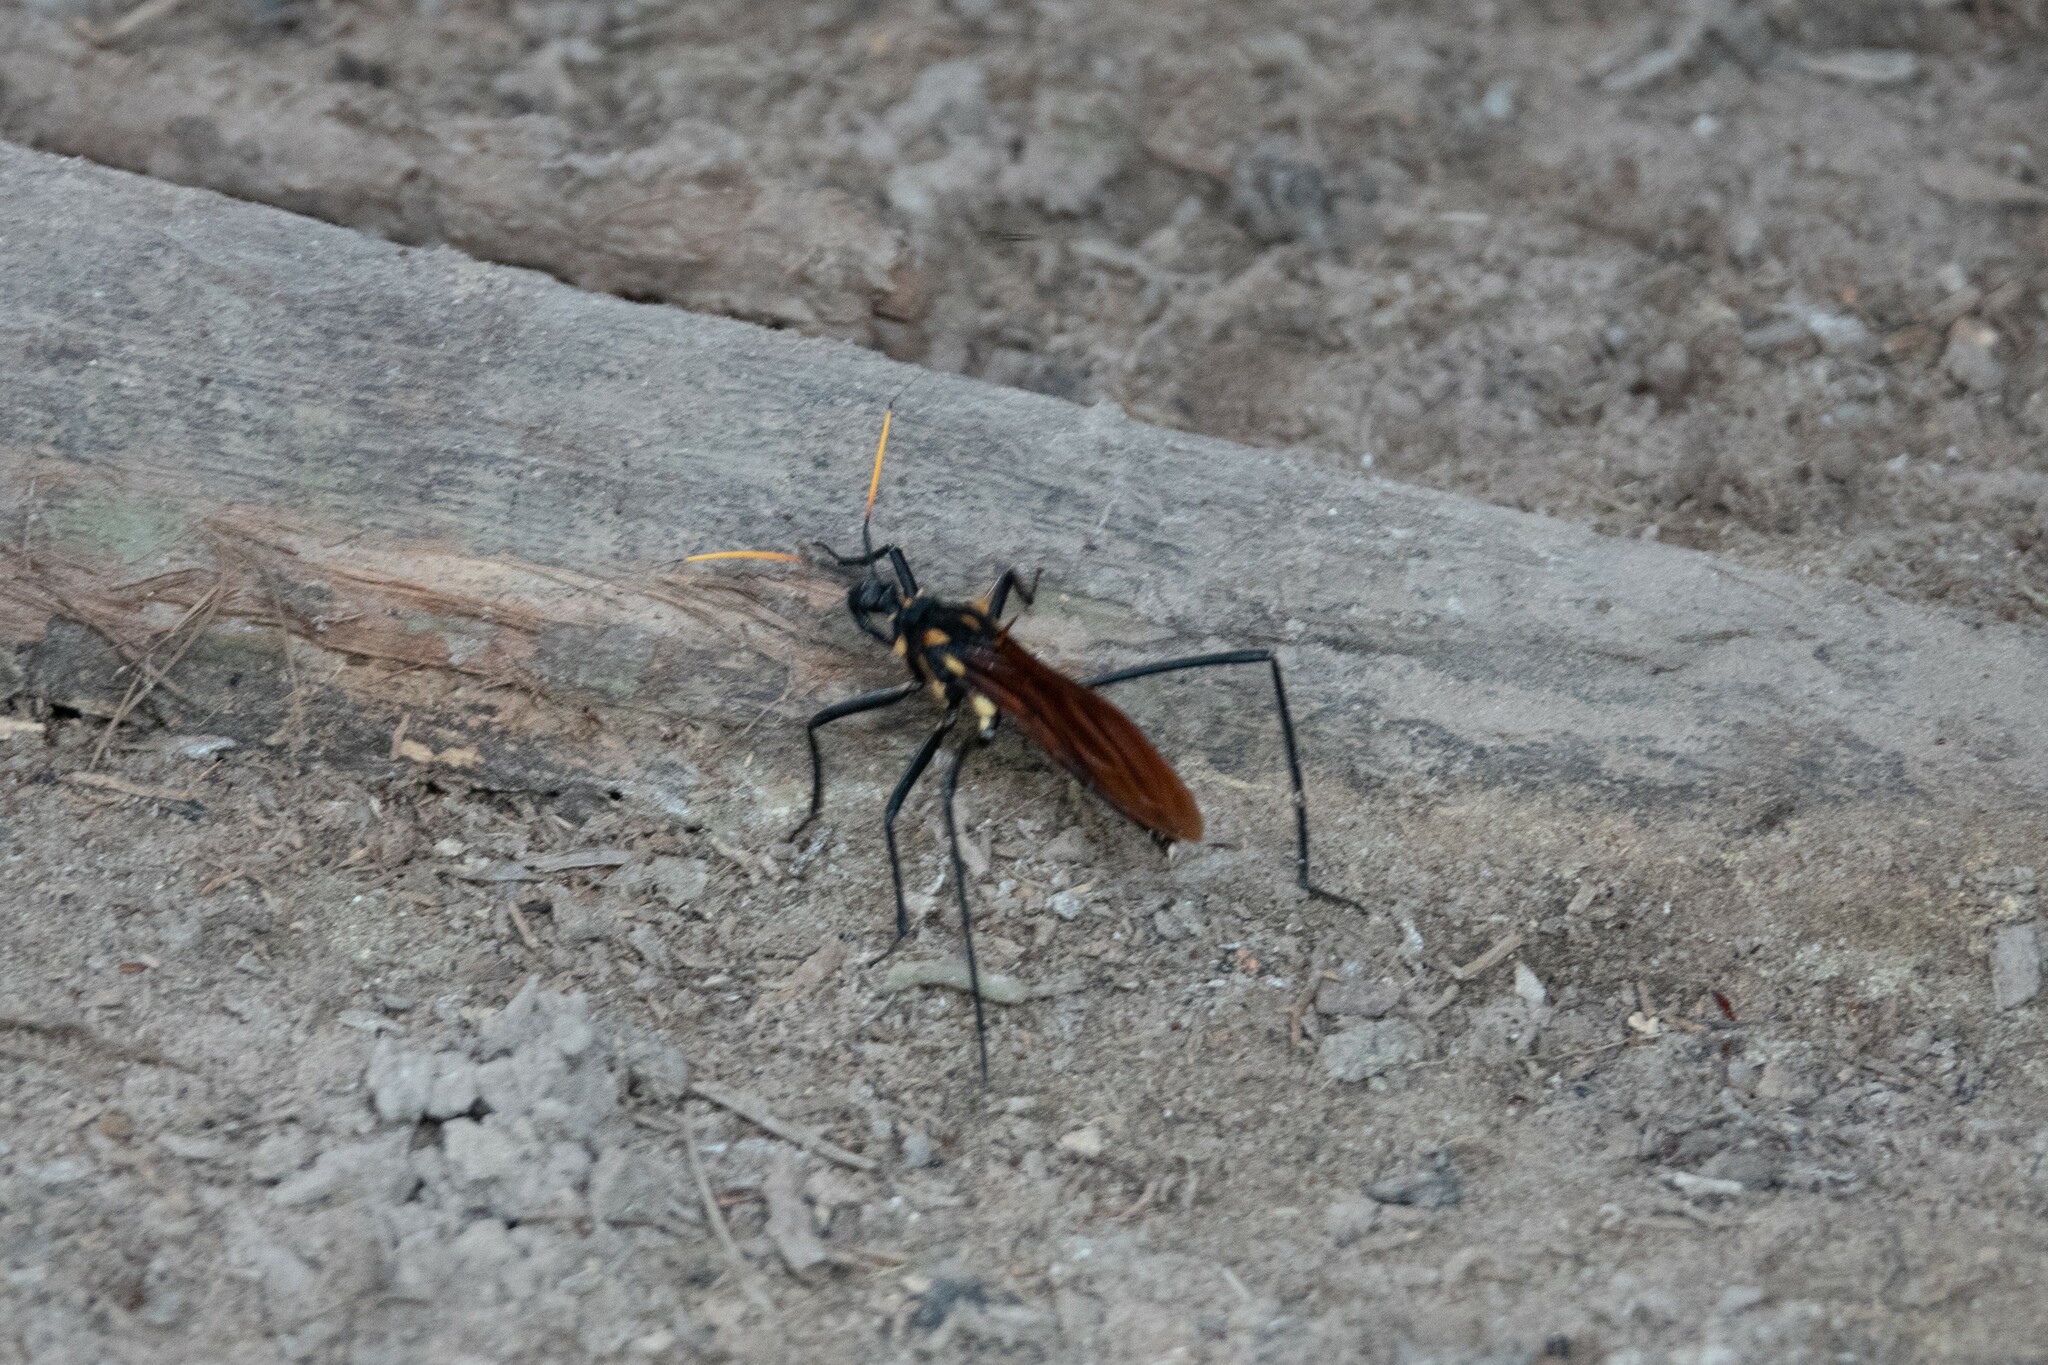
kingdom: Animalia
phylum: Arthropoda
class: Insecta
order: Hemiptera
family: Reduviidae
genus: Zelurus
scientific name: Zelurus festivus
